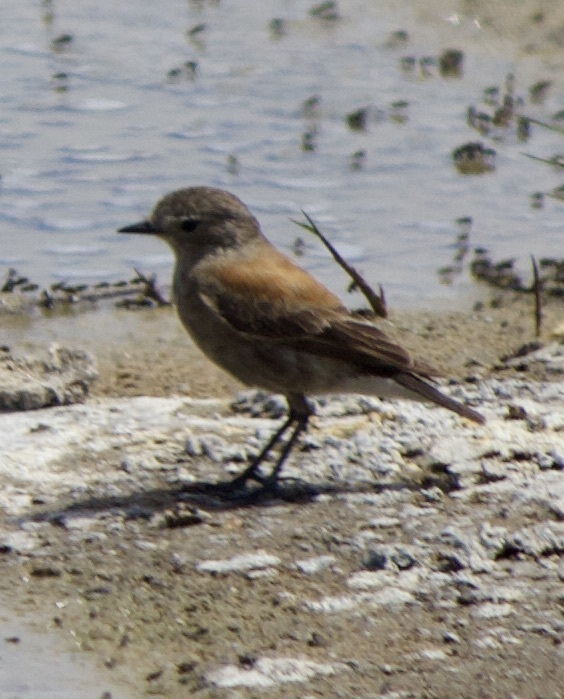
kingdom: Animalia
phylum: Chordata
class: Aves
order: Passeriformes
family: Tyrannidae
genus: Lessonia
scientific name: Lessonia rufa
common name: Austral negrito
